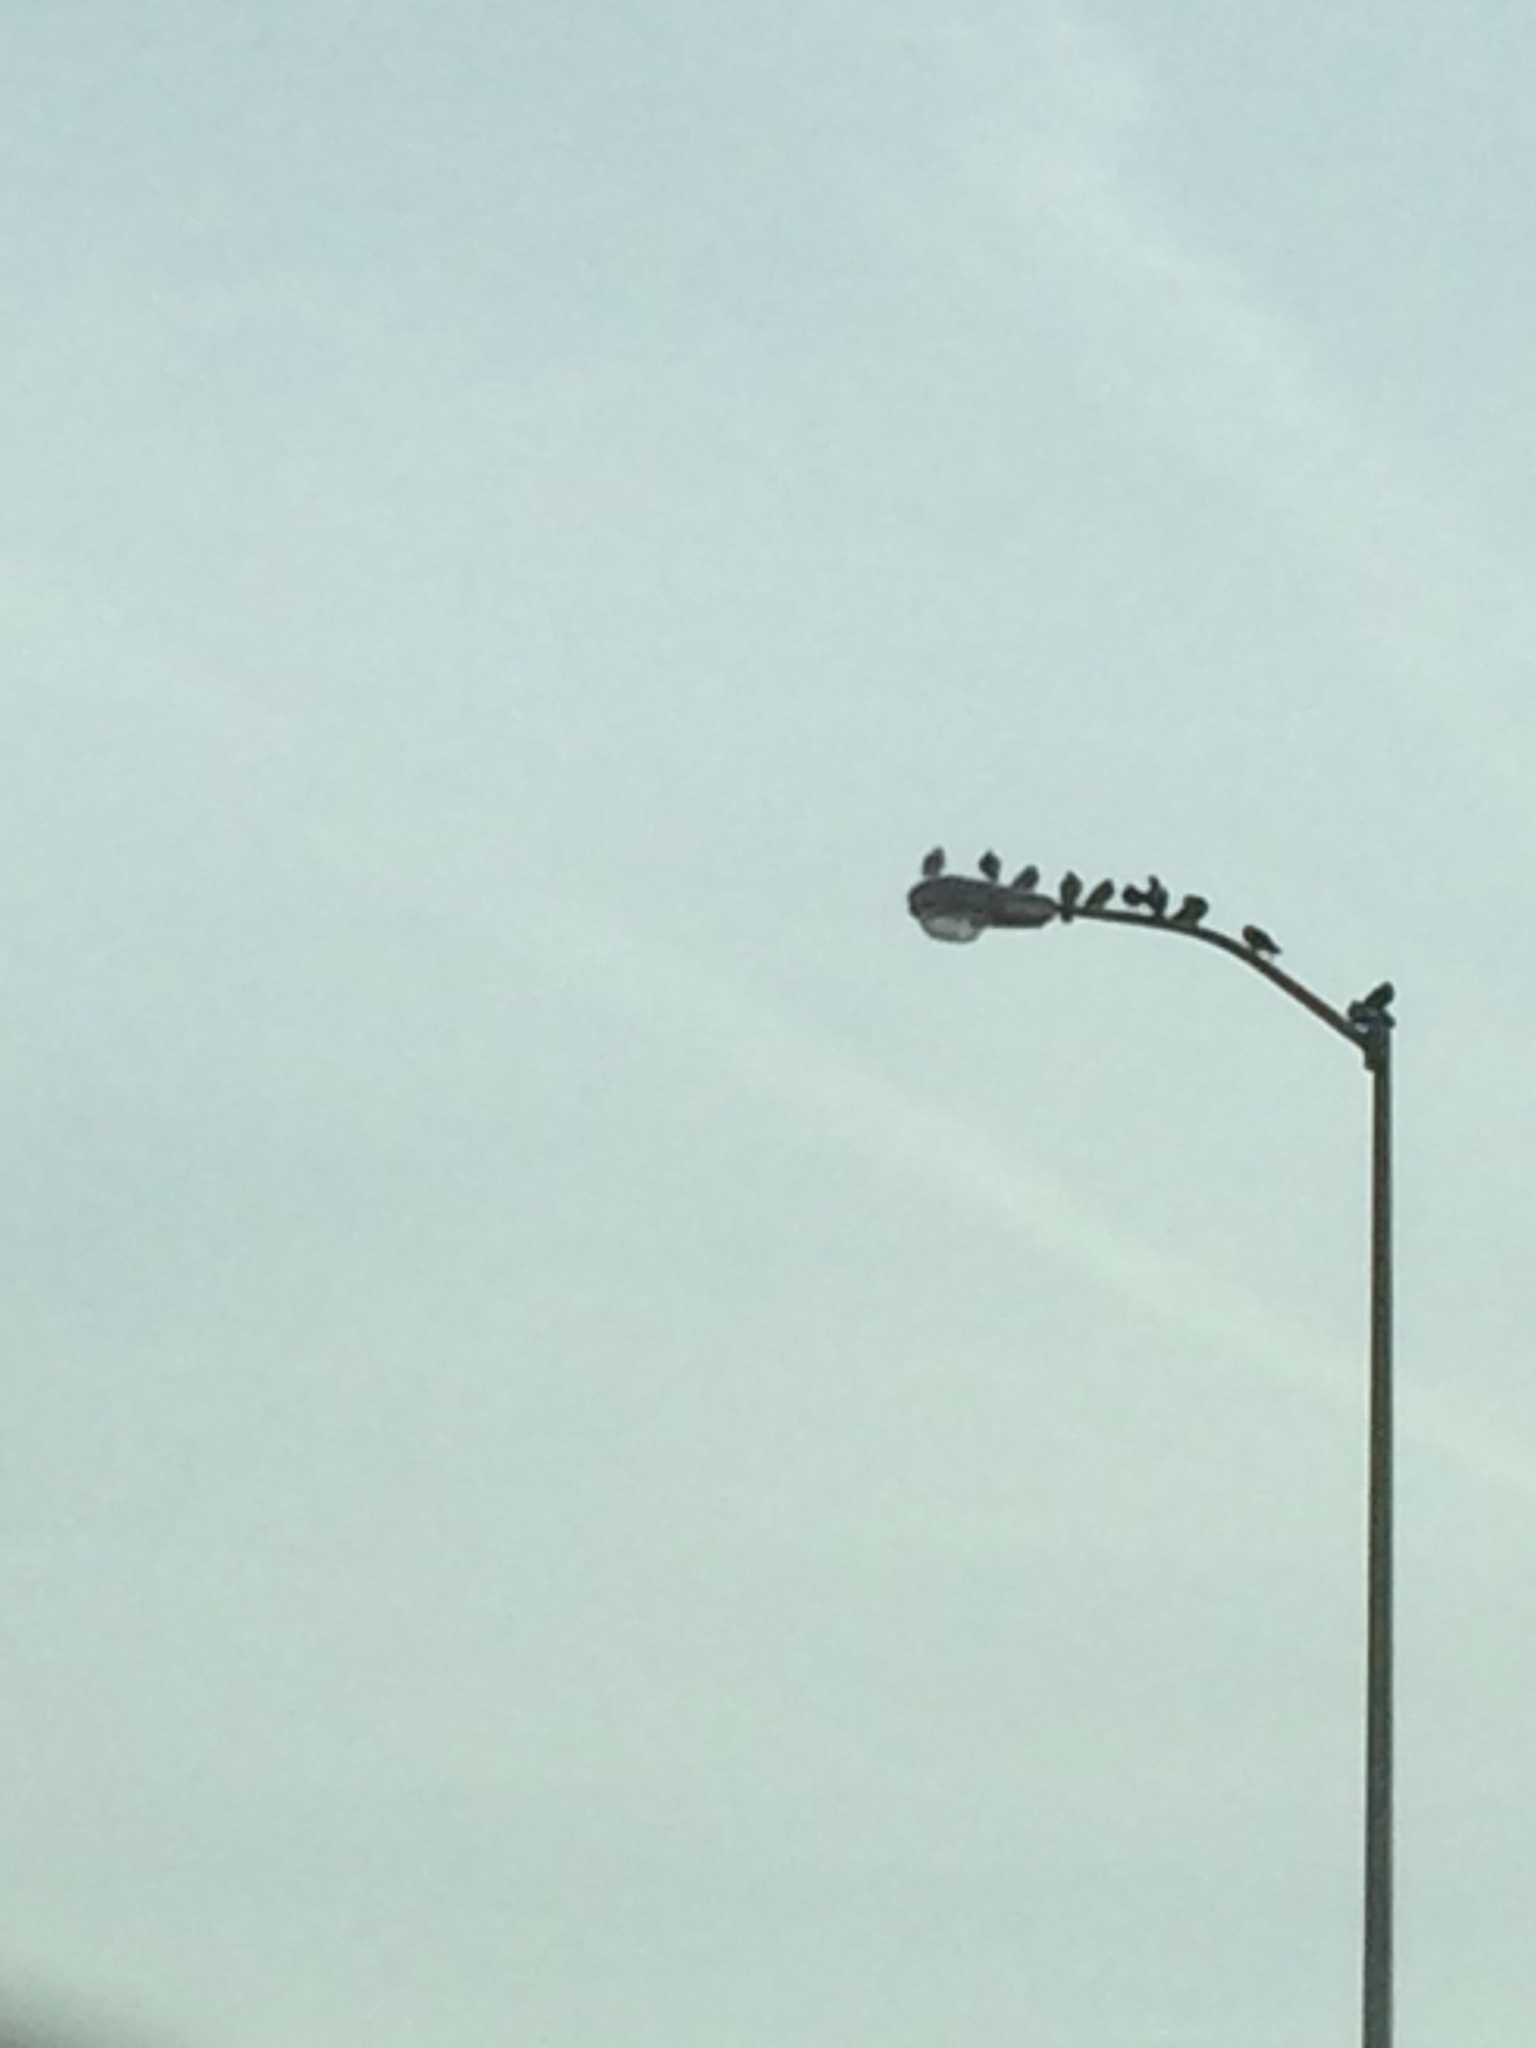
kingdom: Animalia
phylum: Chordata
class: Aves
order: Columbiformes
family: Columbidae
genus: Columba
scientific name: Columba livia
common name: Rock pigeon
